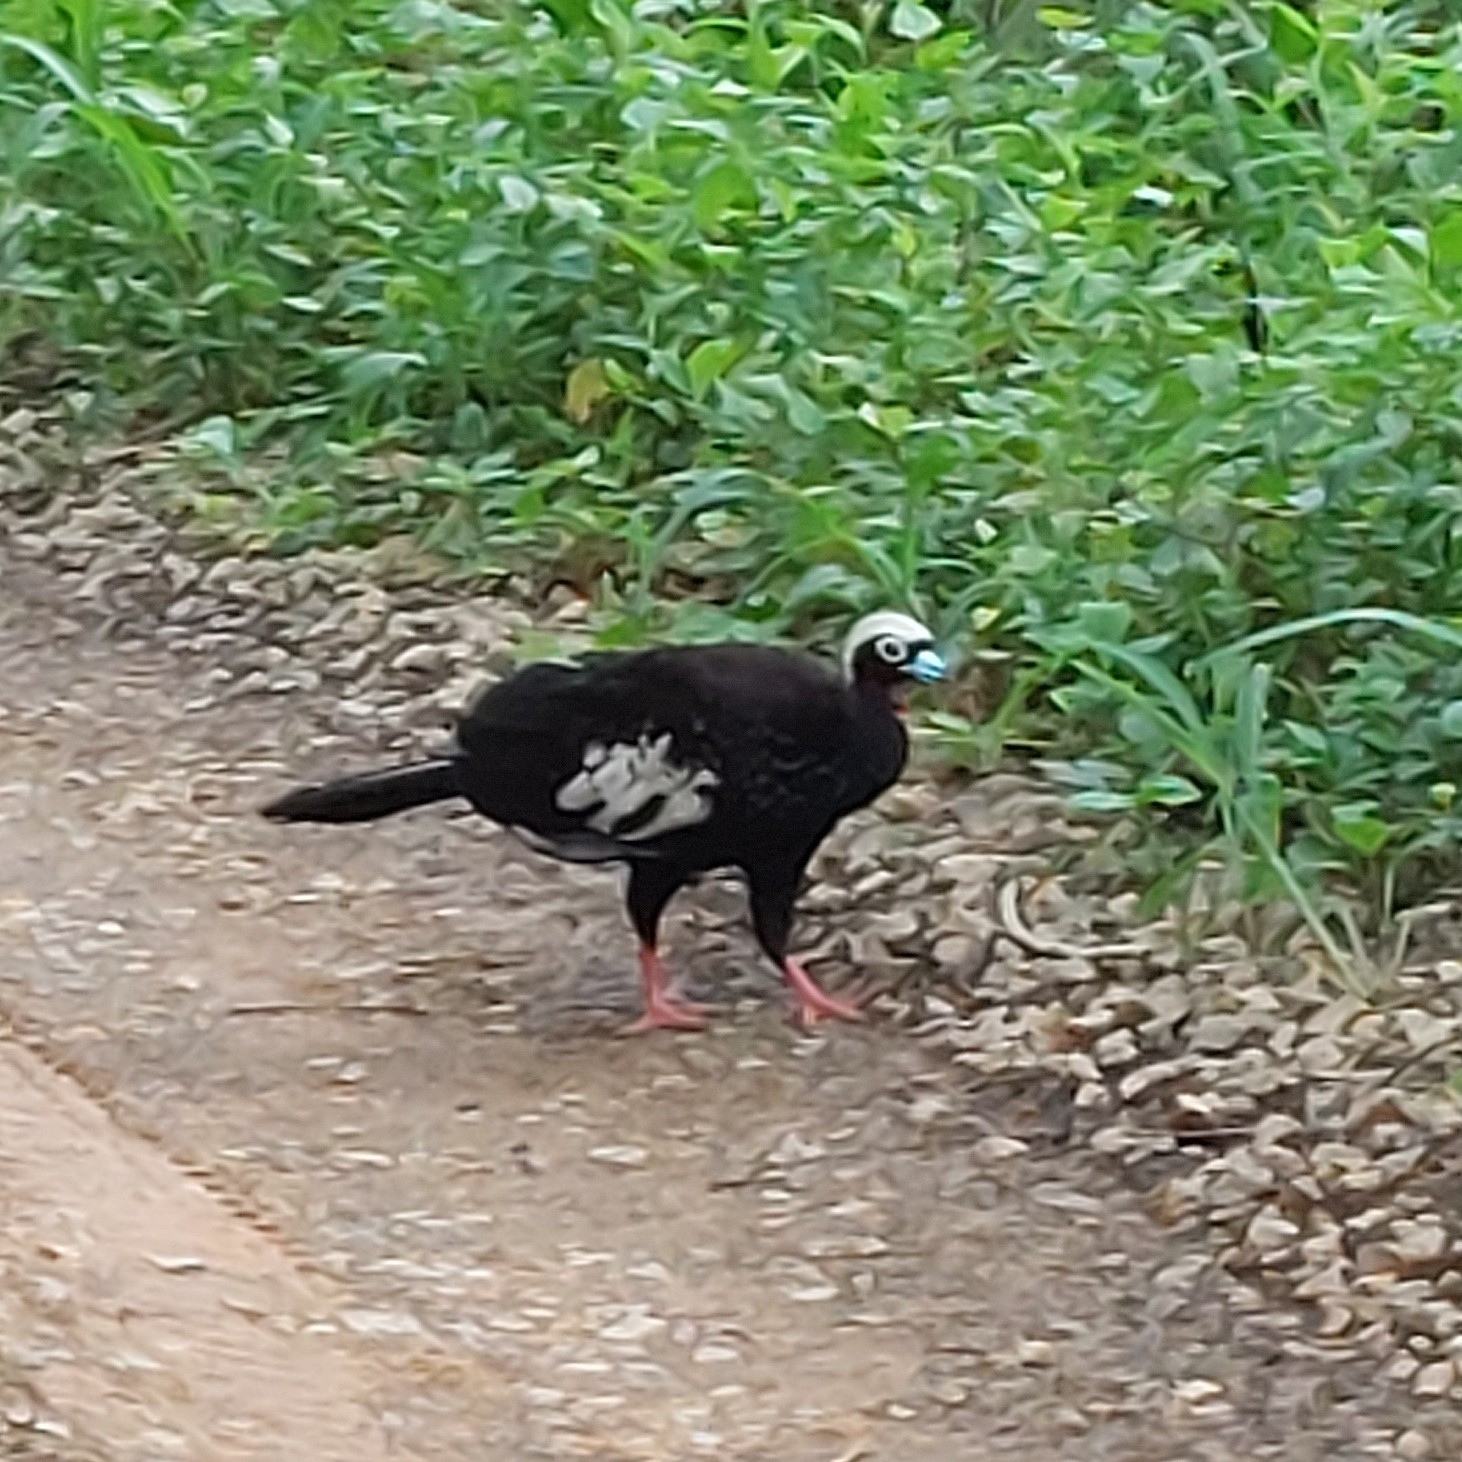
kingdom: Animalia
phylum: Chordata
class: Aves
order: Galliformes
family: Cracidae
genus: Pipile
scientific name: Pipile jacutinga
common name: Black-fronted piping-guan
